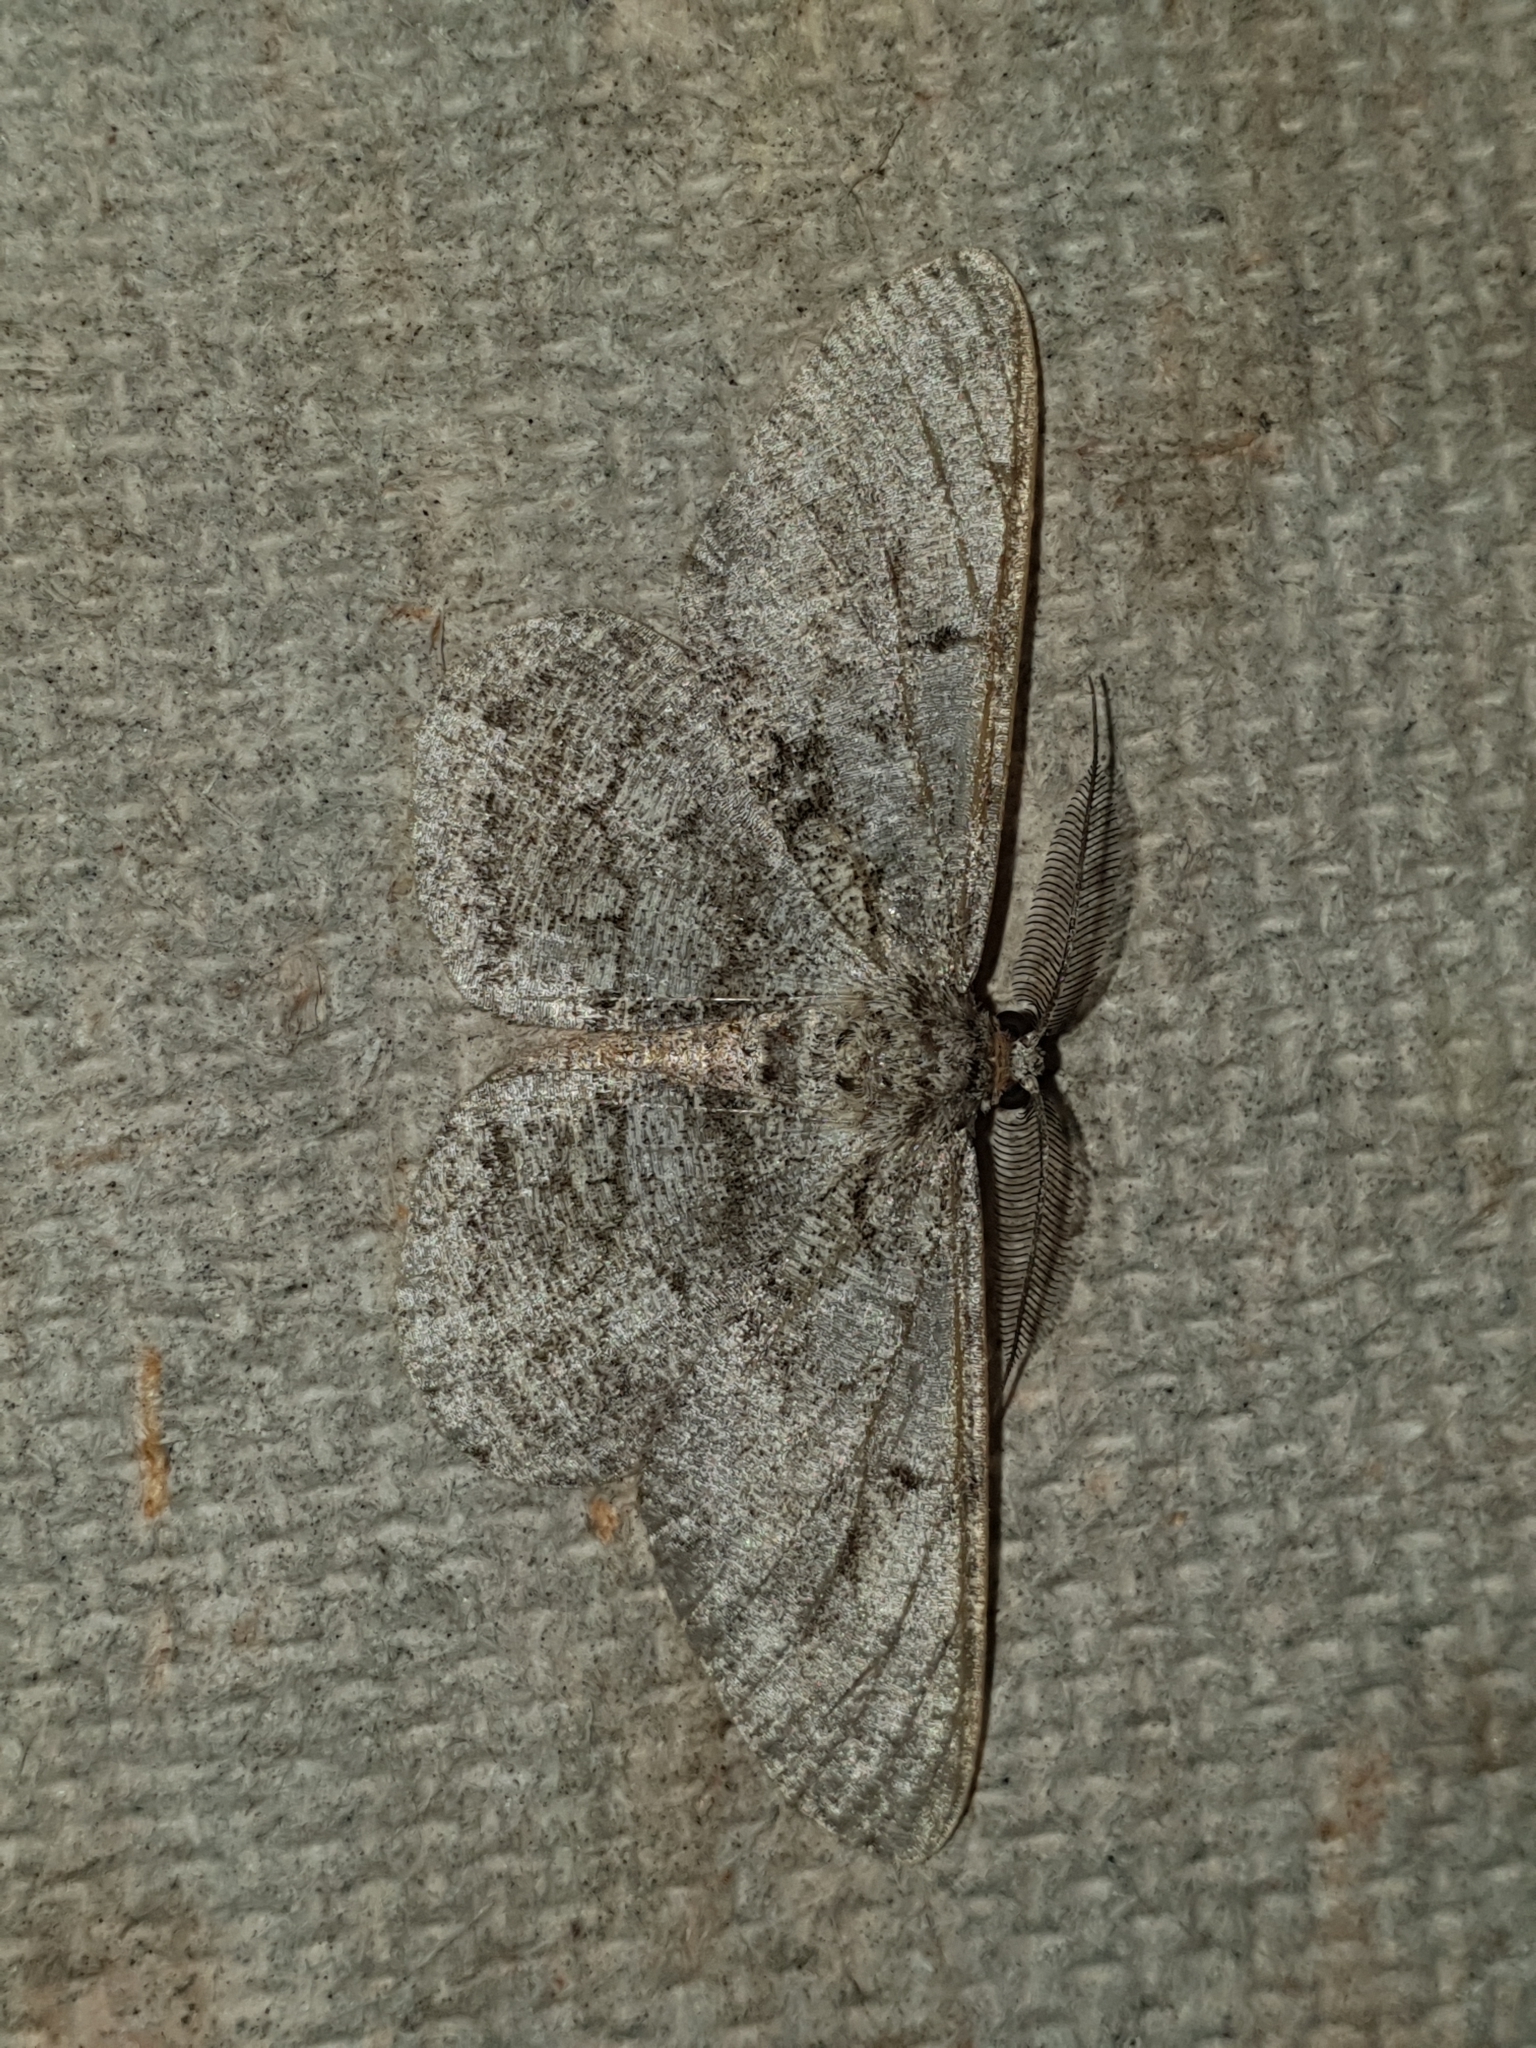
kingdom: Animalia
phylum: Arthropoda
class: Insecta
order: Lepidoptera
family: Geometridae
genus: Hypomecis
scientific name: Hypomecis roboraria
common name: Great oak beauty
